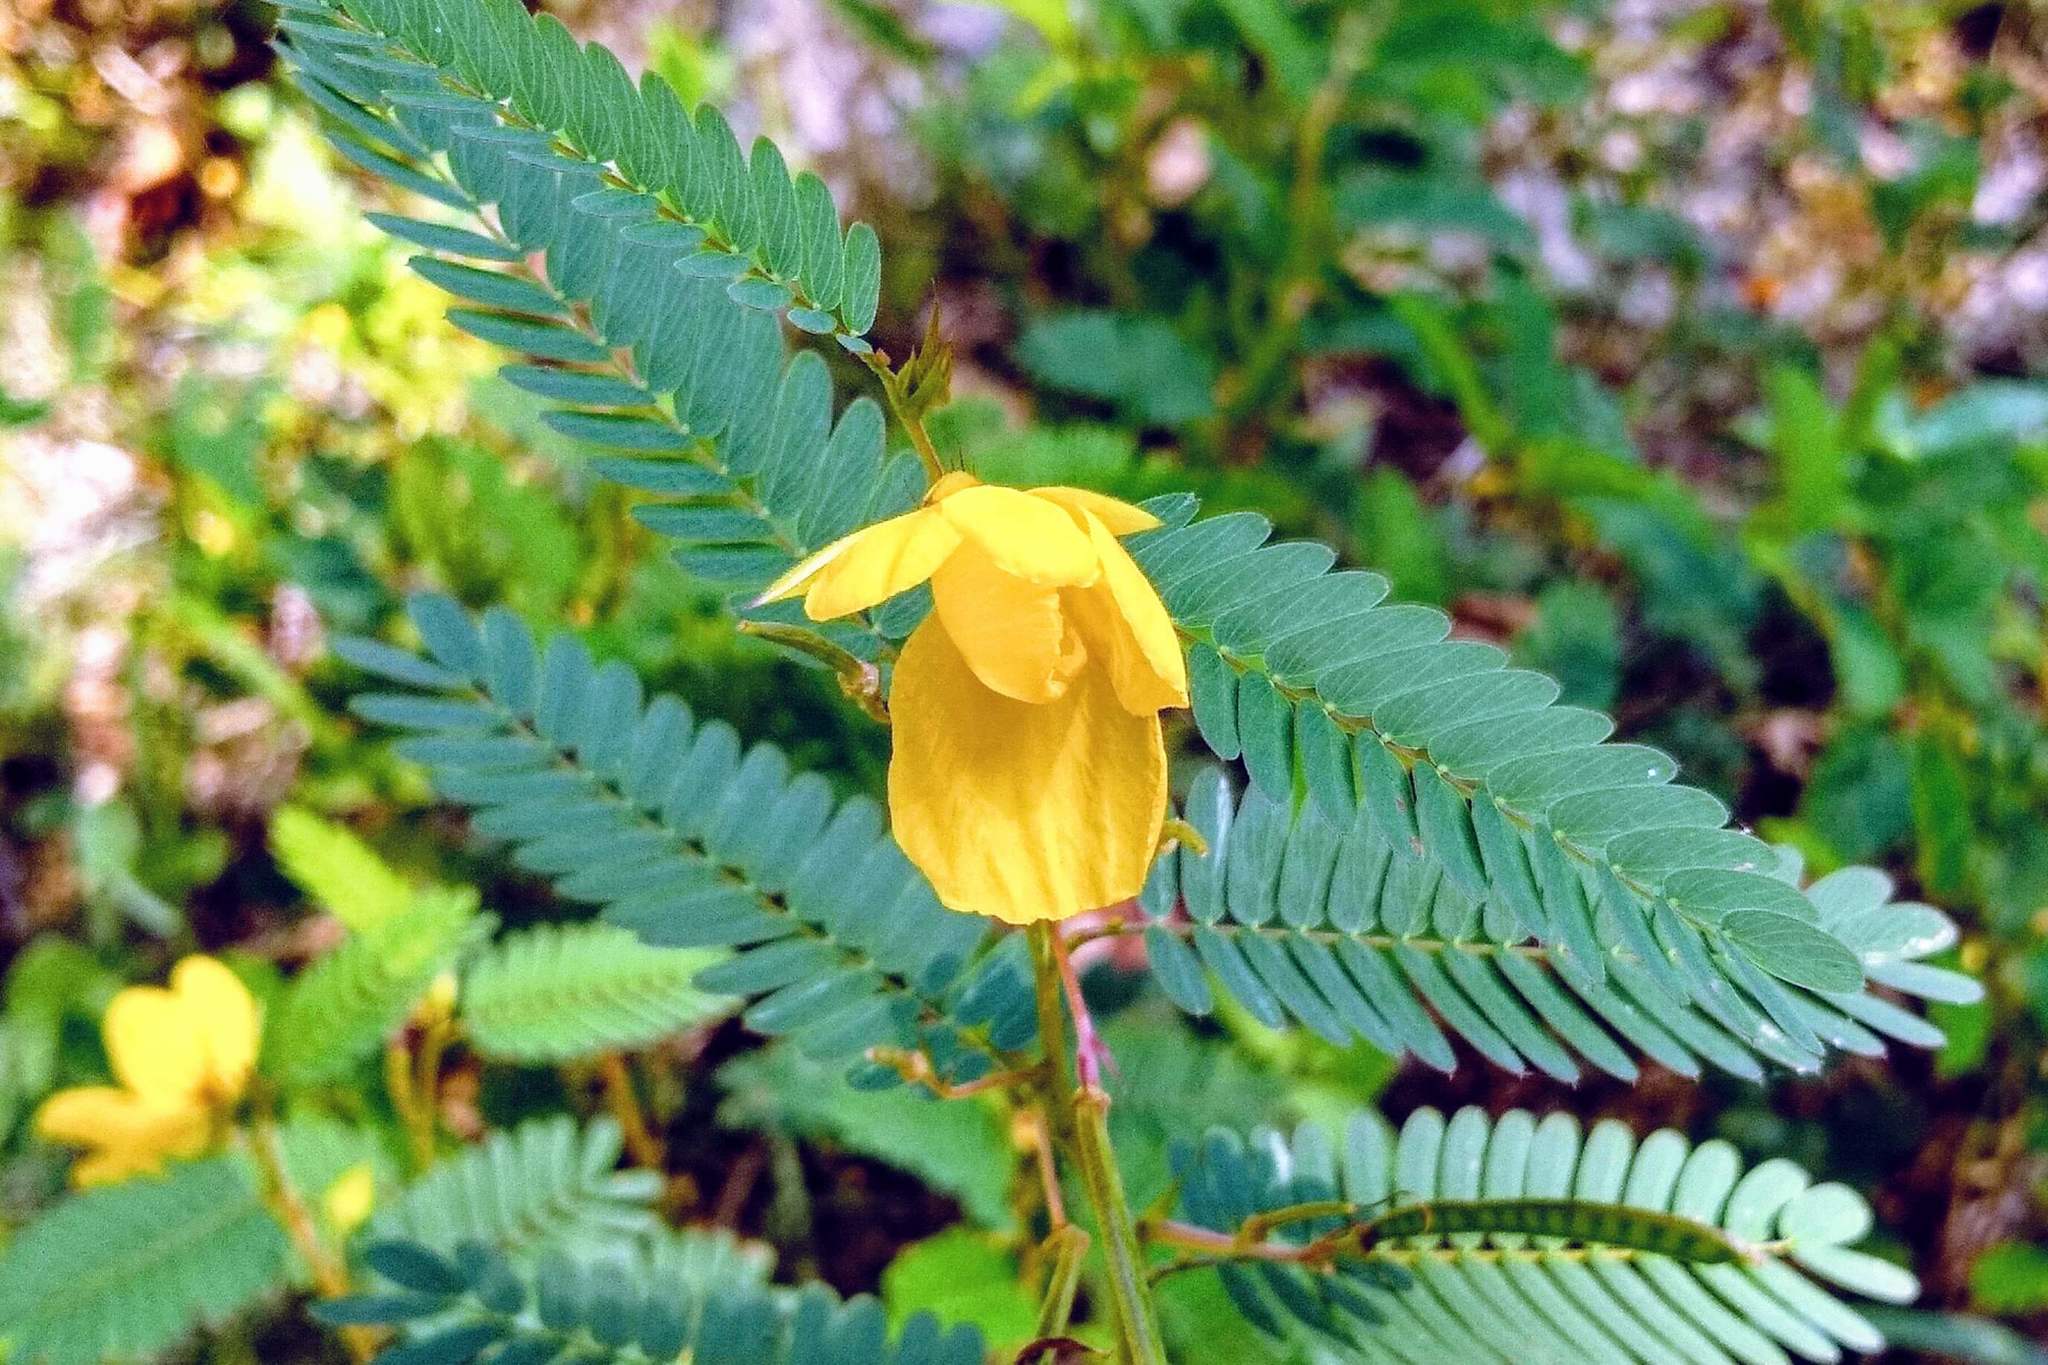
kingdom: Plantae
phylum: Tracheophyta
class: Magnoliopsida
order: Fabales
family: Fabaceae
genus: Chamaecrista
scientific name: Chamaecrista fasciculata
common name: Golden cassia
